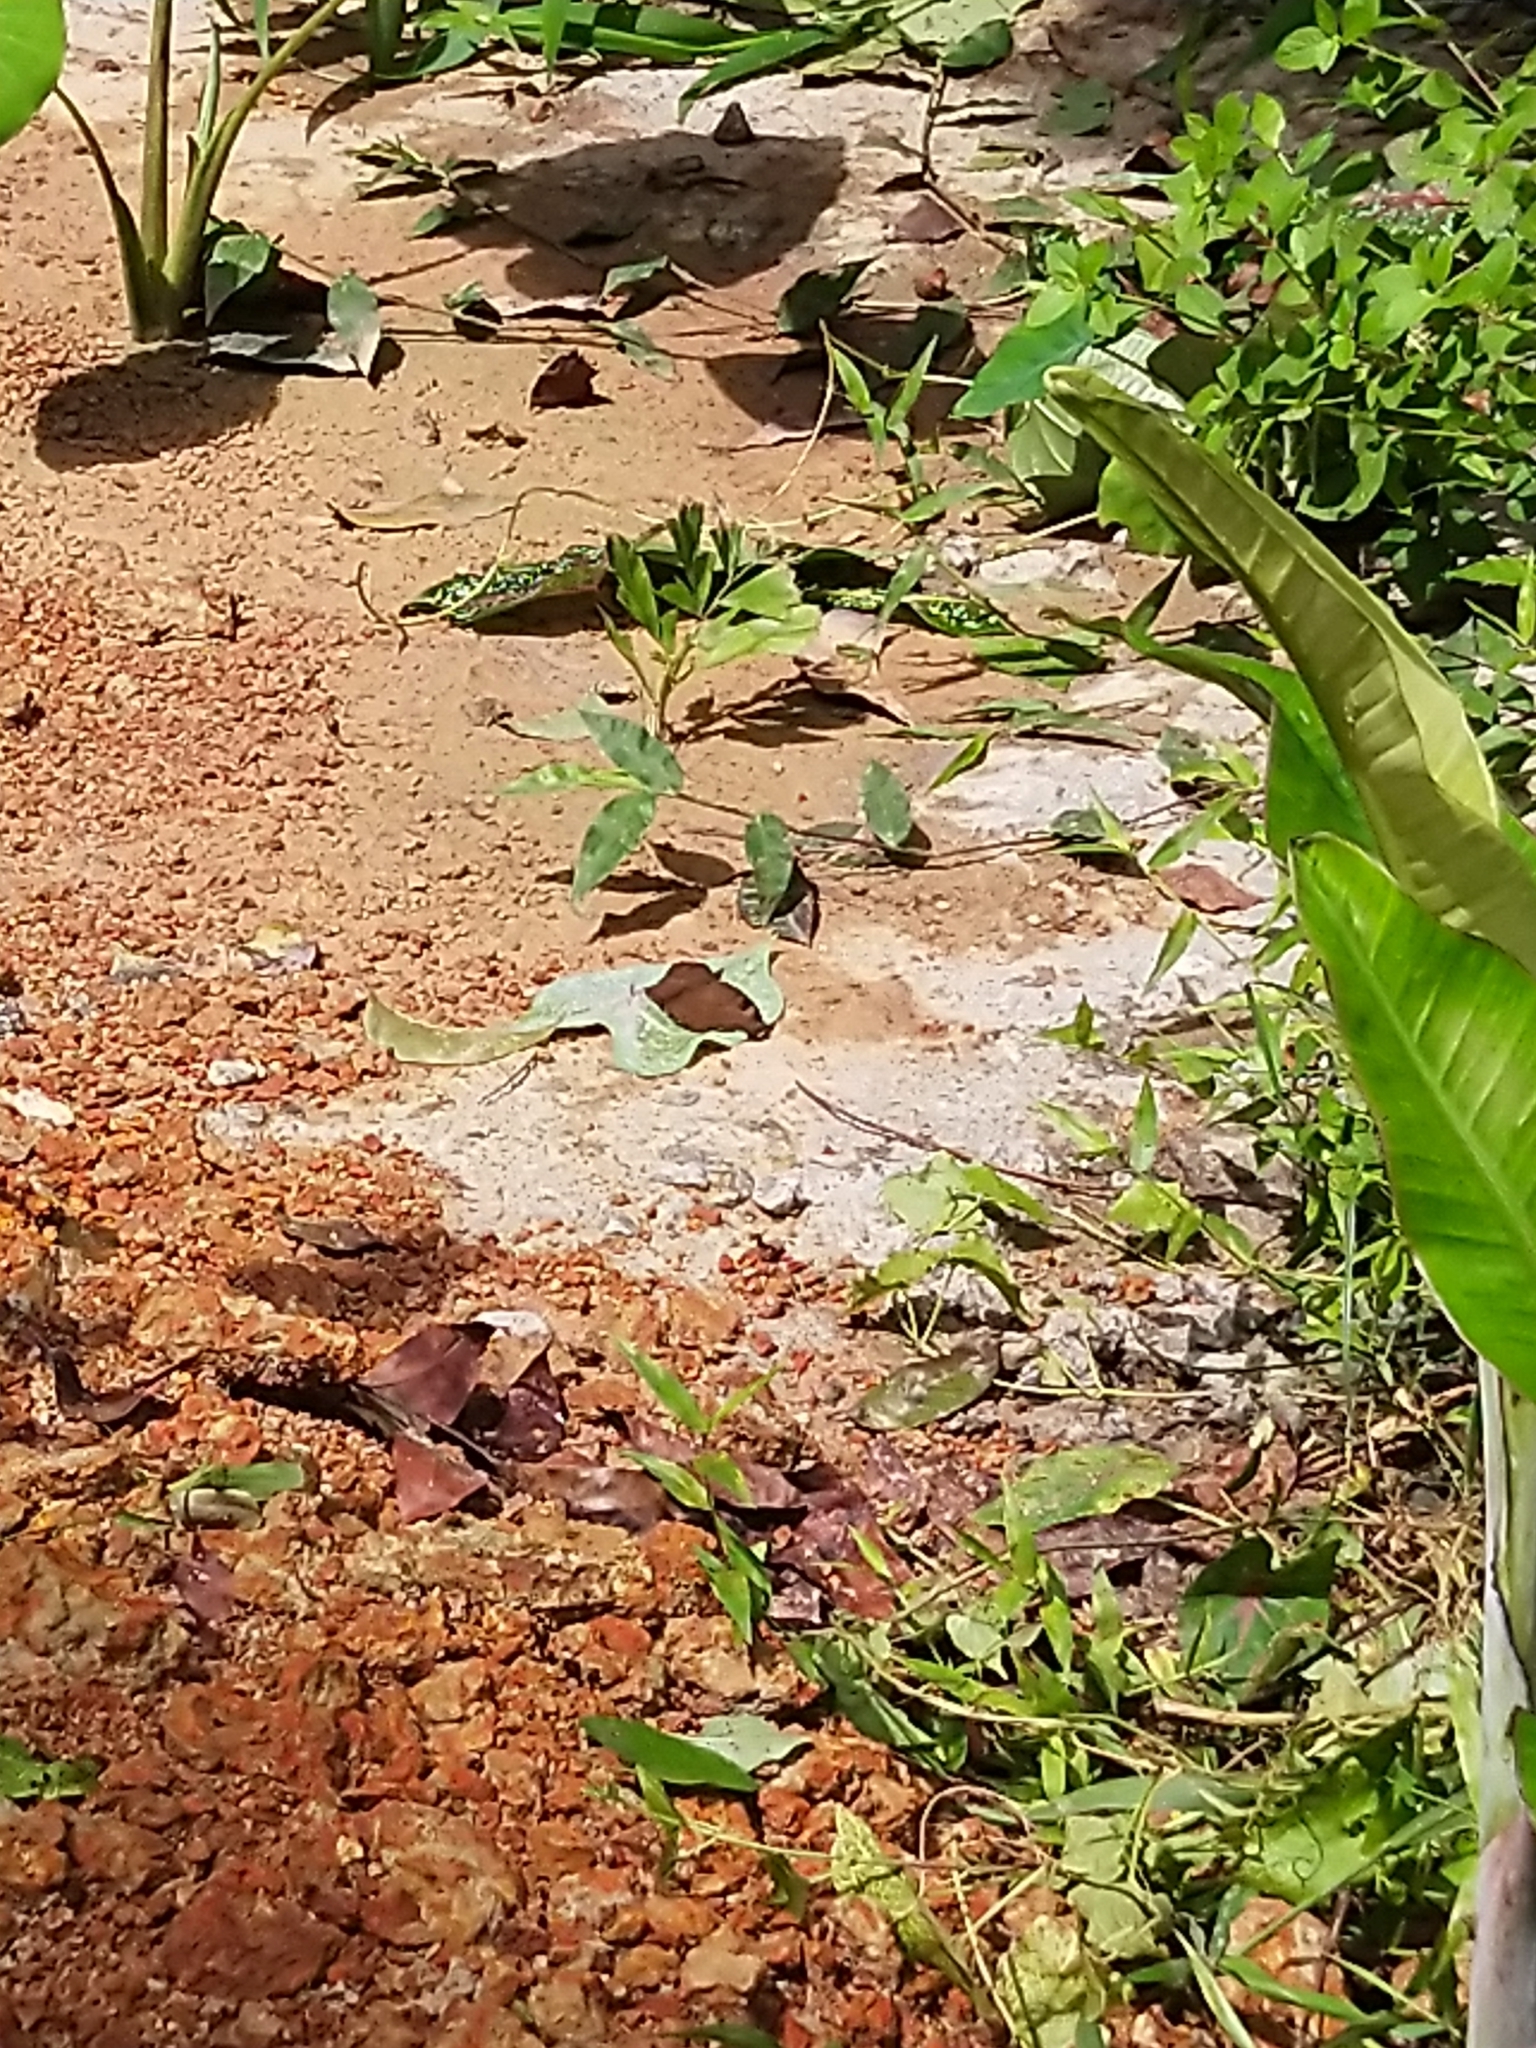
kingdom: Animalia
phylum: Arthropoda
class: Insecta
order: Lepidoptera
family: Nymphalidae
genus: Junonia
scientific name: Junonia iphita
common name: Chocolate pansy
